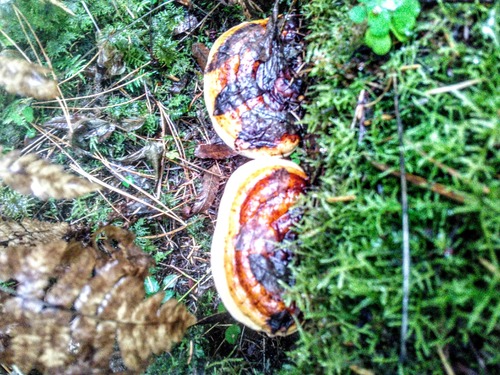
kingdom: Fungi
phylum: Basidiomycota
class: Agaricomycetes
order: Polyporales
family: Fomitopsidaceae
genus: Fomitopsis
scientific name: Fomitopsis pinicola
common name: Red-belted bracket
